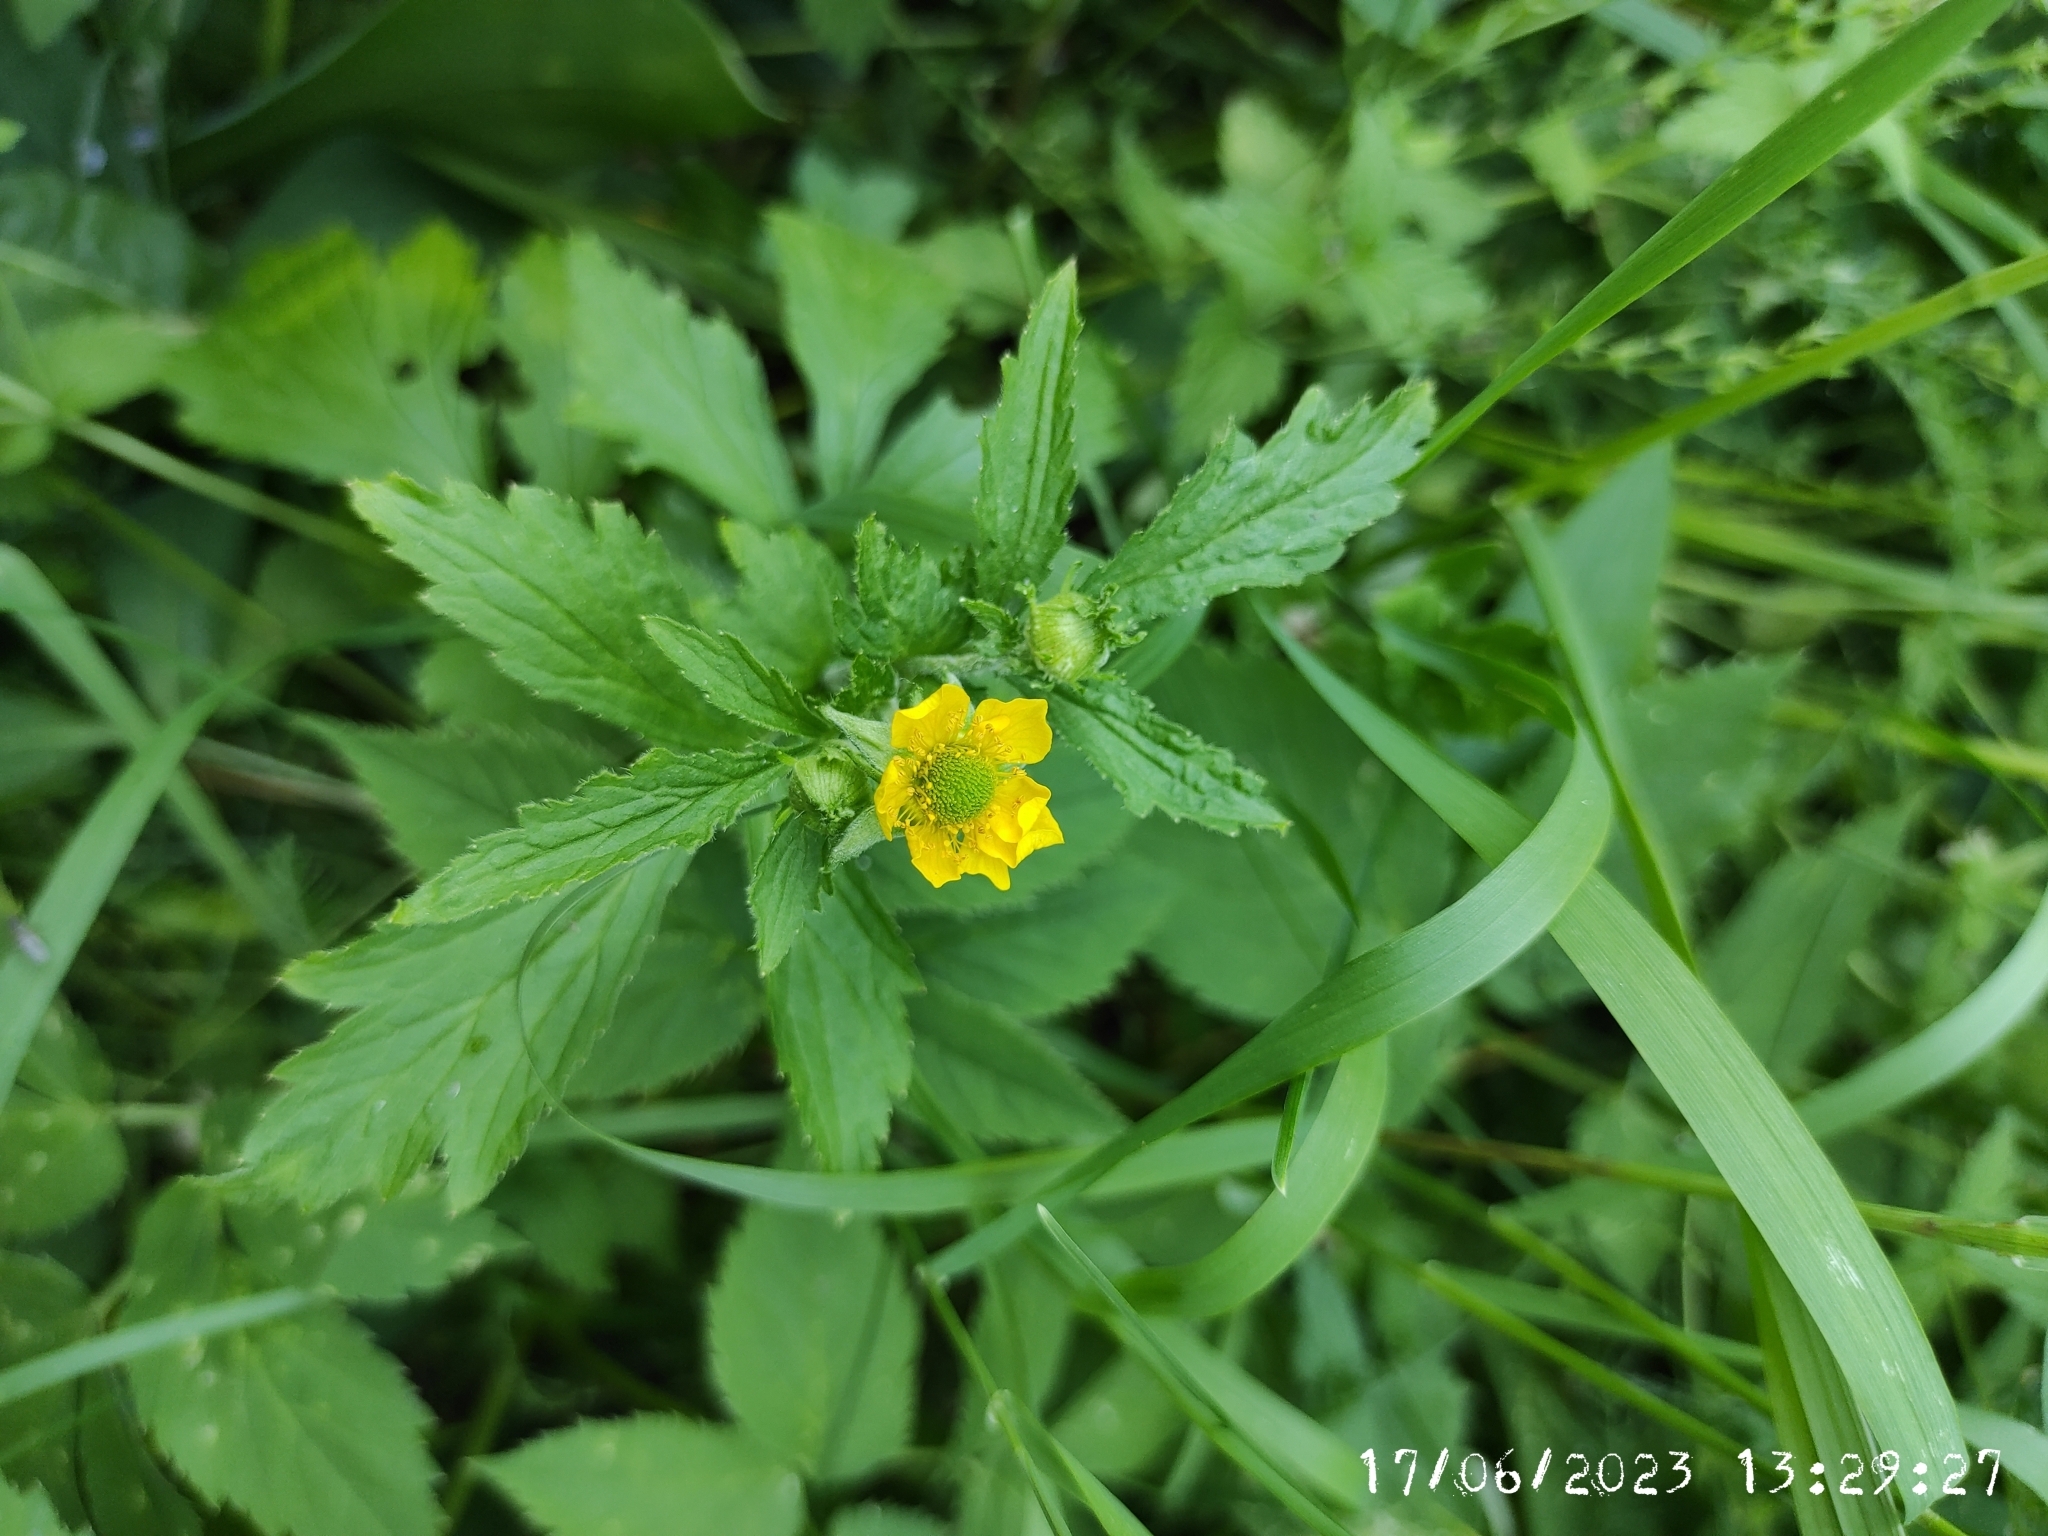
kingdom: Plantae
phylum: Tracheophyta
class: Magnoliopsida
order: Rosales
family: Rosaceae
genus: Geum
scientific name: Geum aleppicum
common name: Yellow avens
